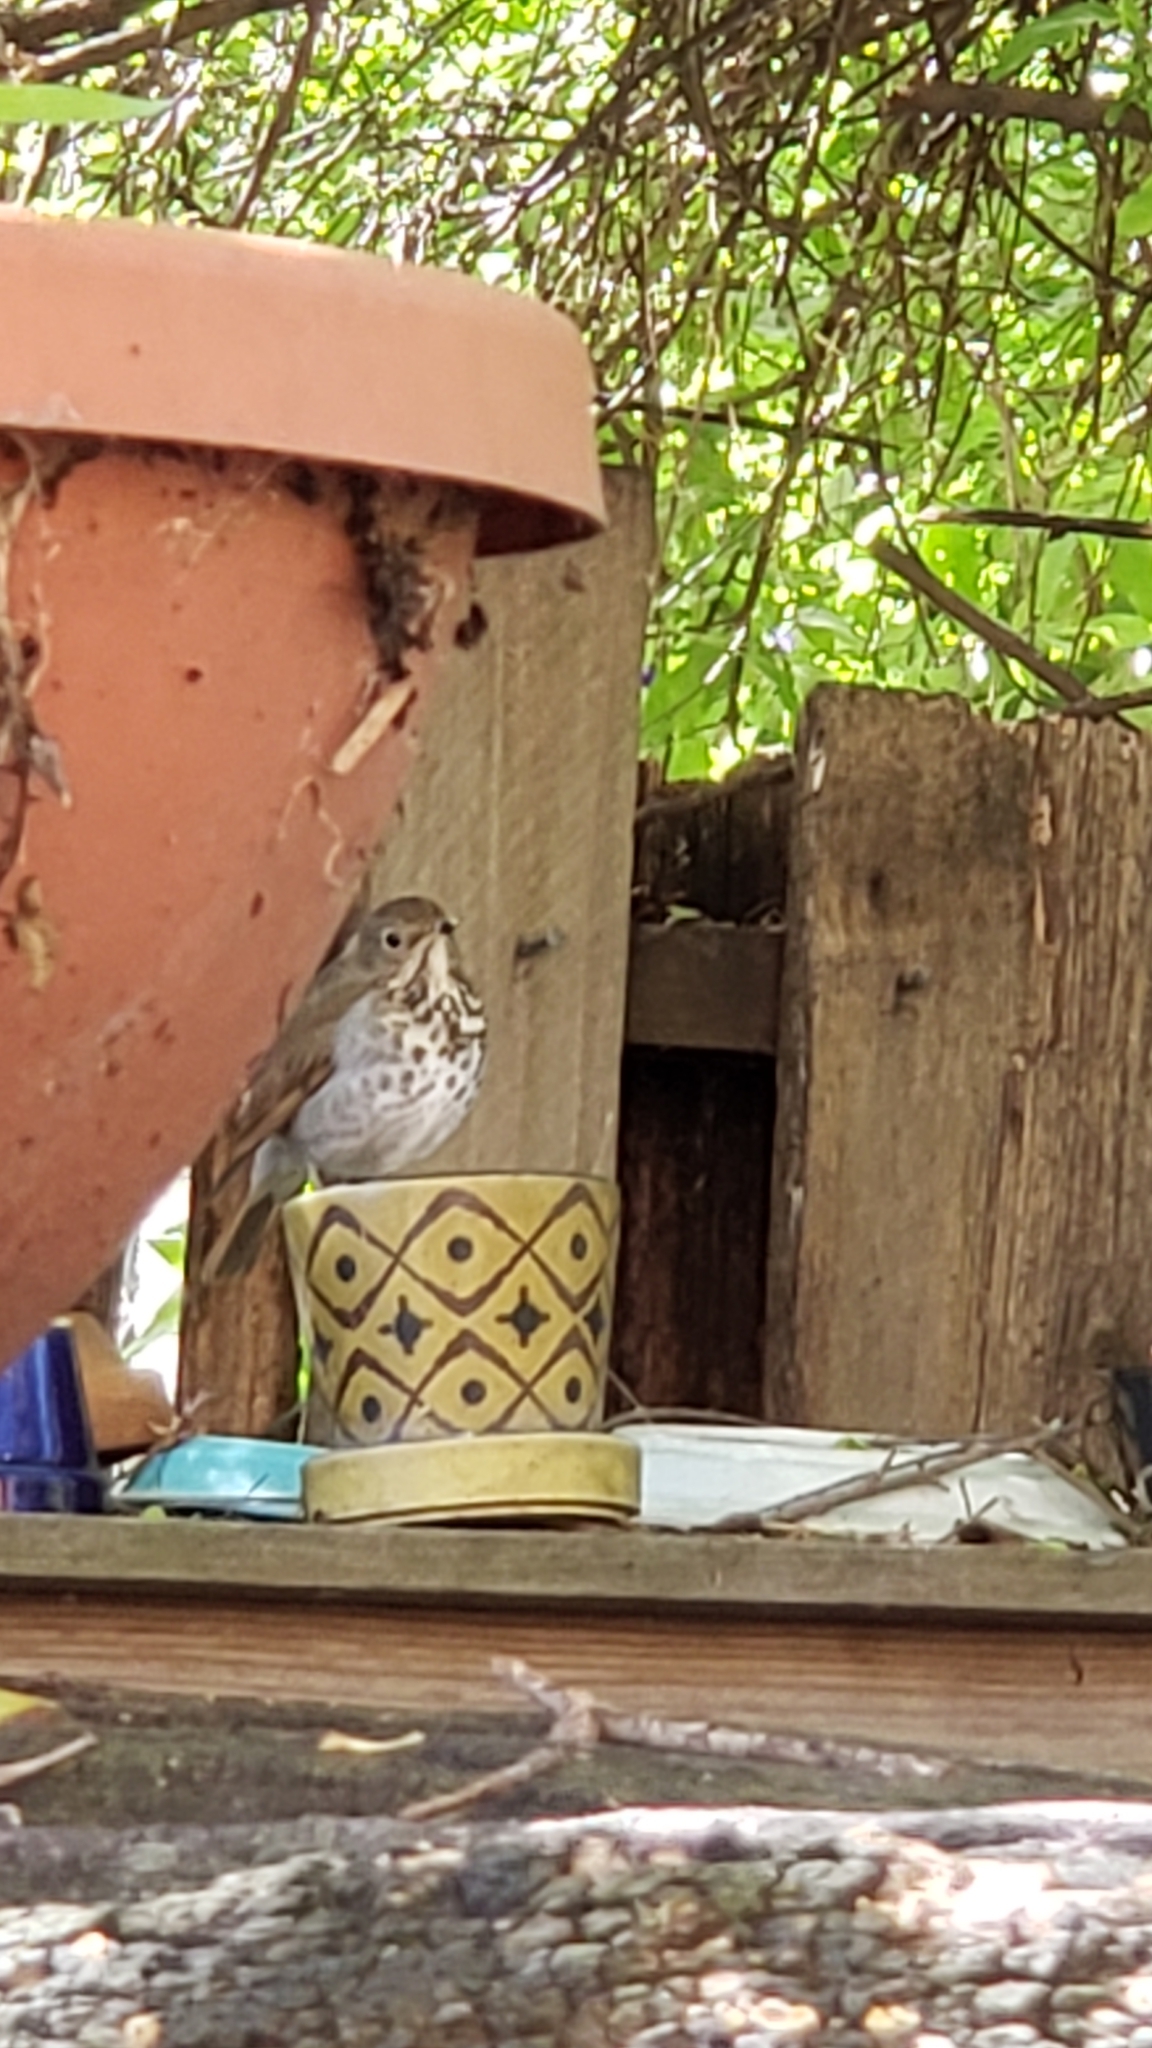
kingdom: Animalia
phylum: Chordata
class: Aves
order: Passeriformes
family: Turdidae
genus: Catharus
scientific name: Catharus guttatus
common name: Hermit thrush
